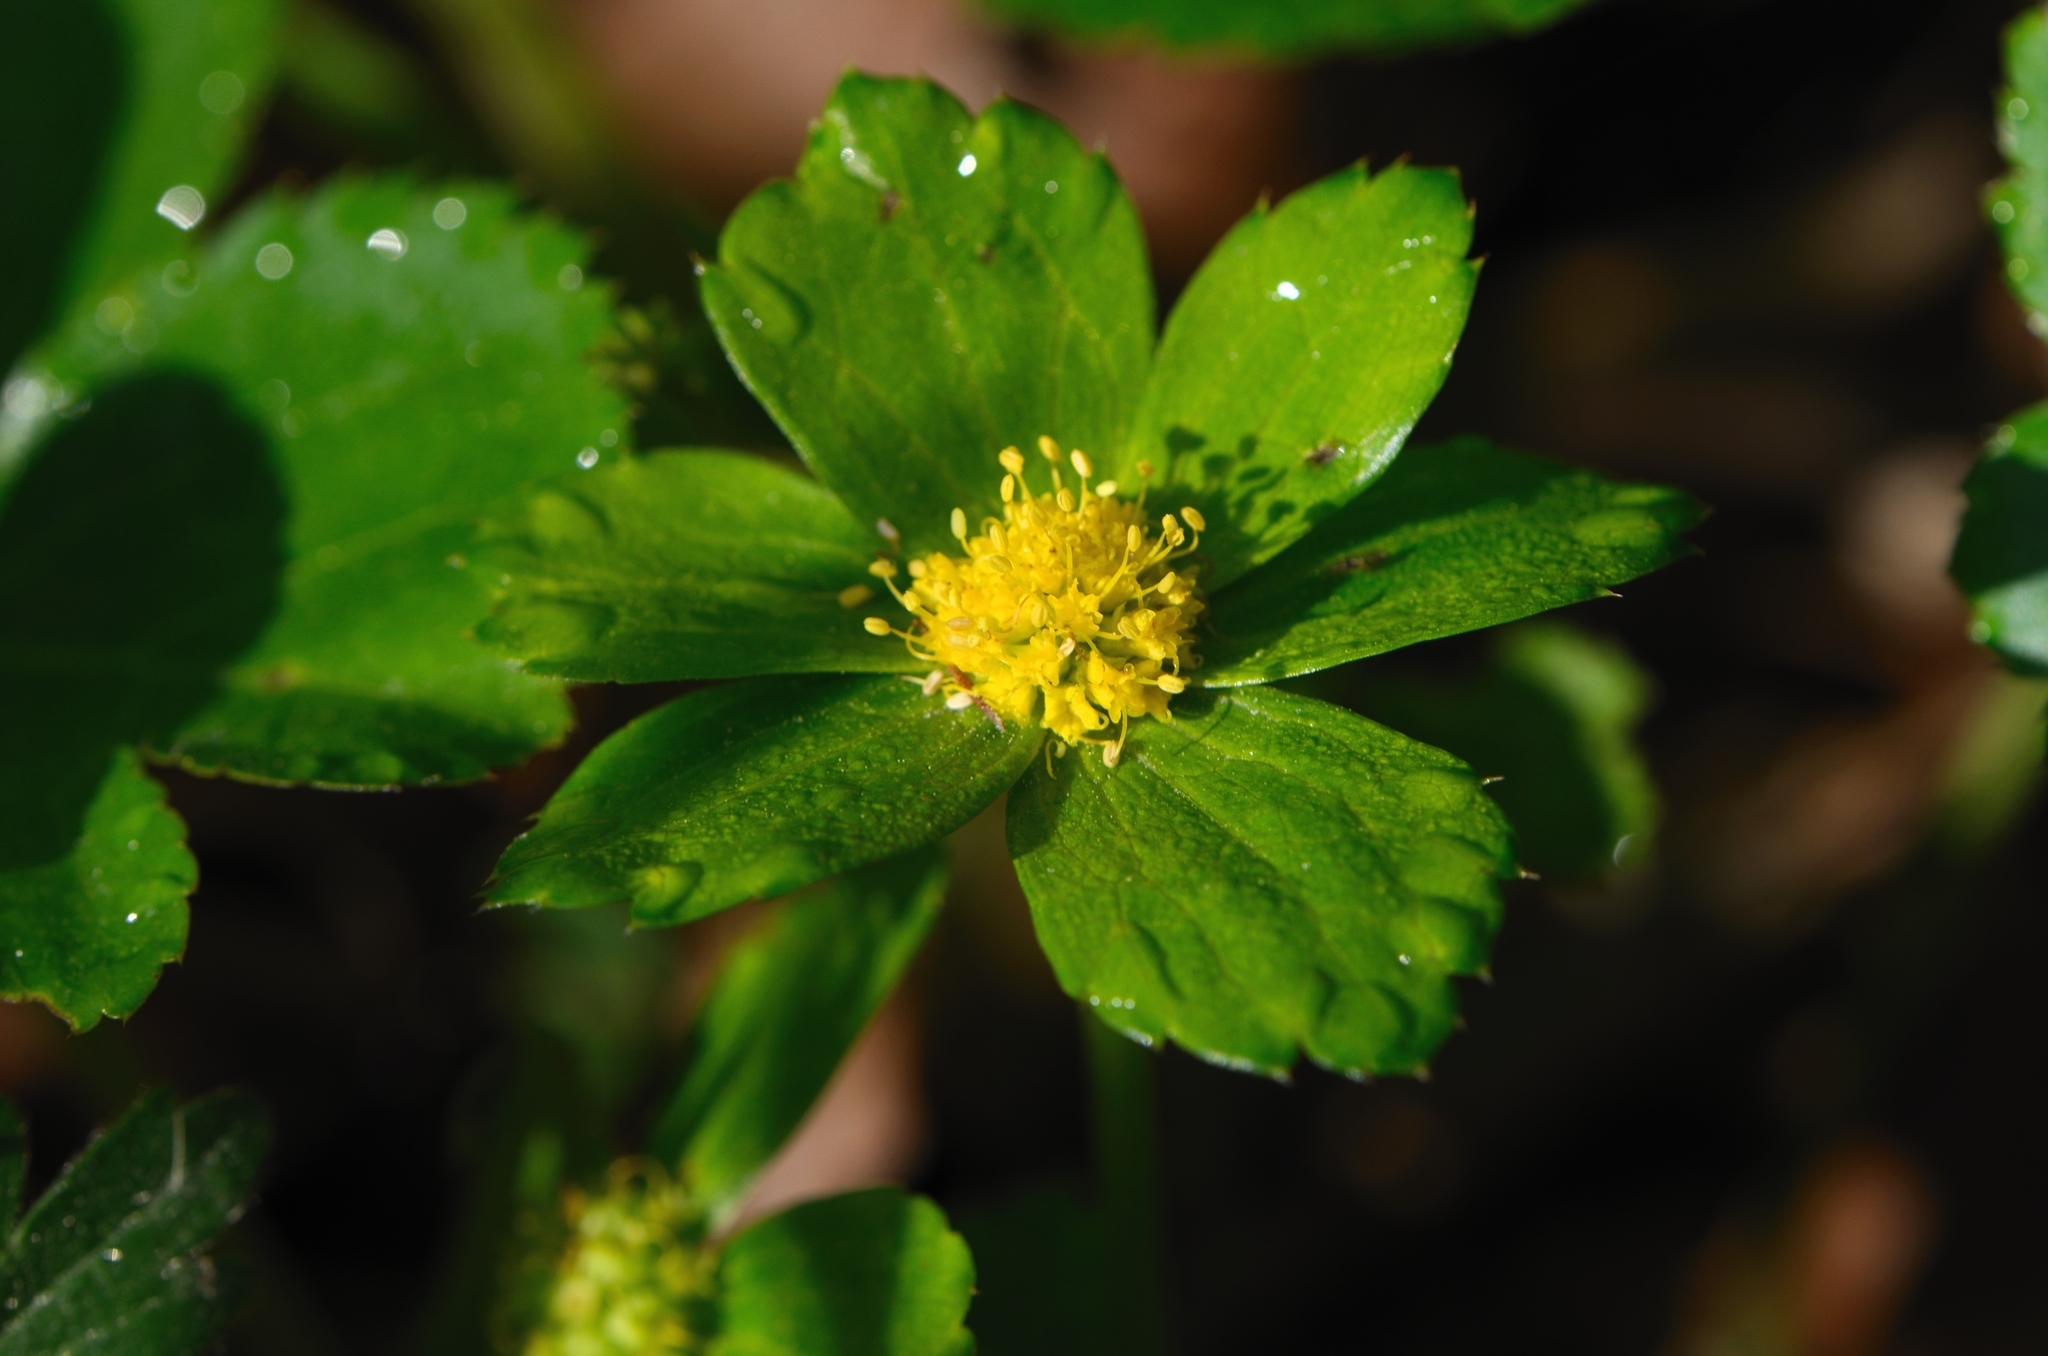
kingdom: Plantae
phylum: Tracheophyta
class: Magnoliopsida
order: Apiales
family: Apiaceae
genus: Sanicula
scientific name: Sanicula epipactis
